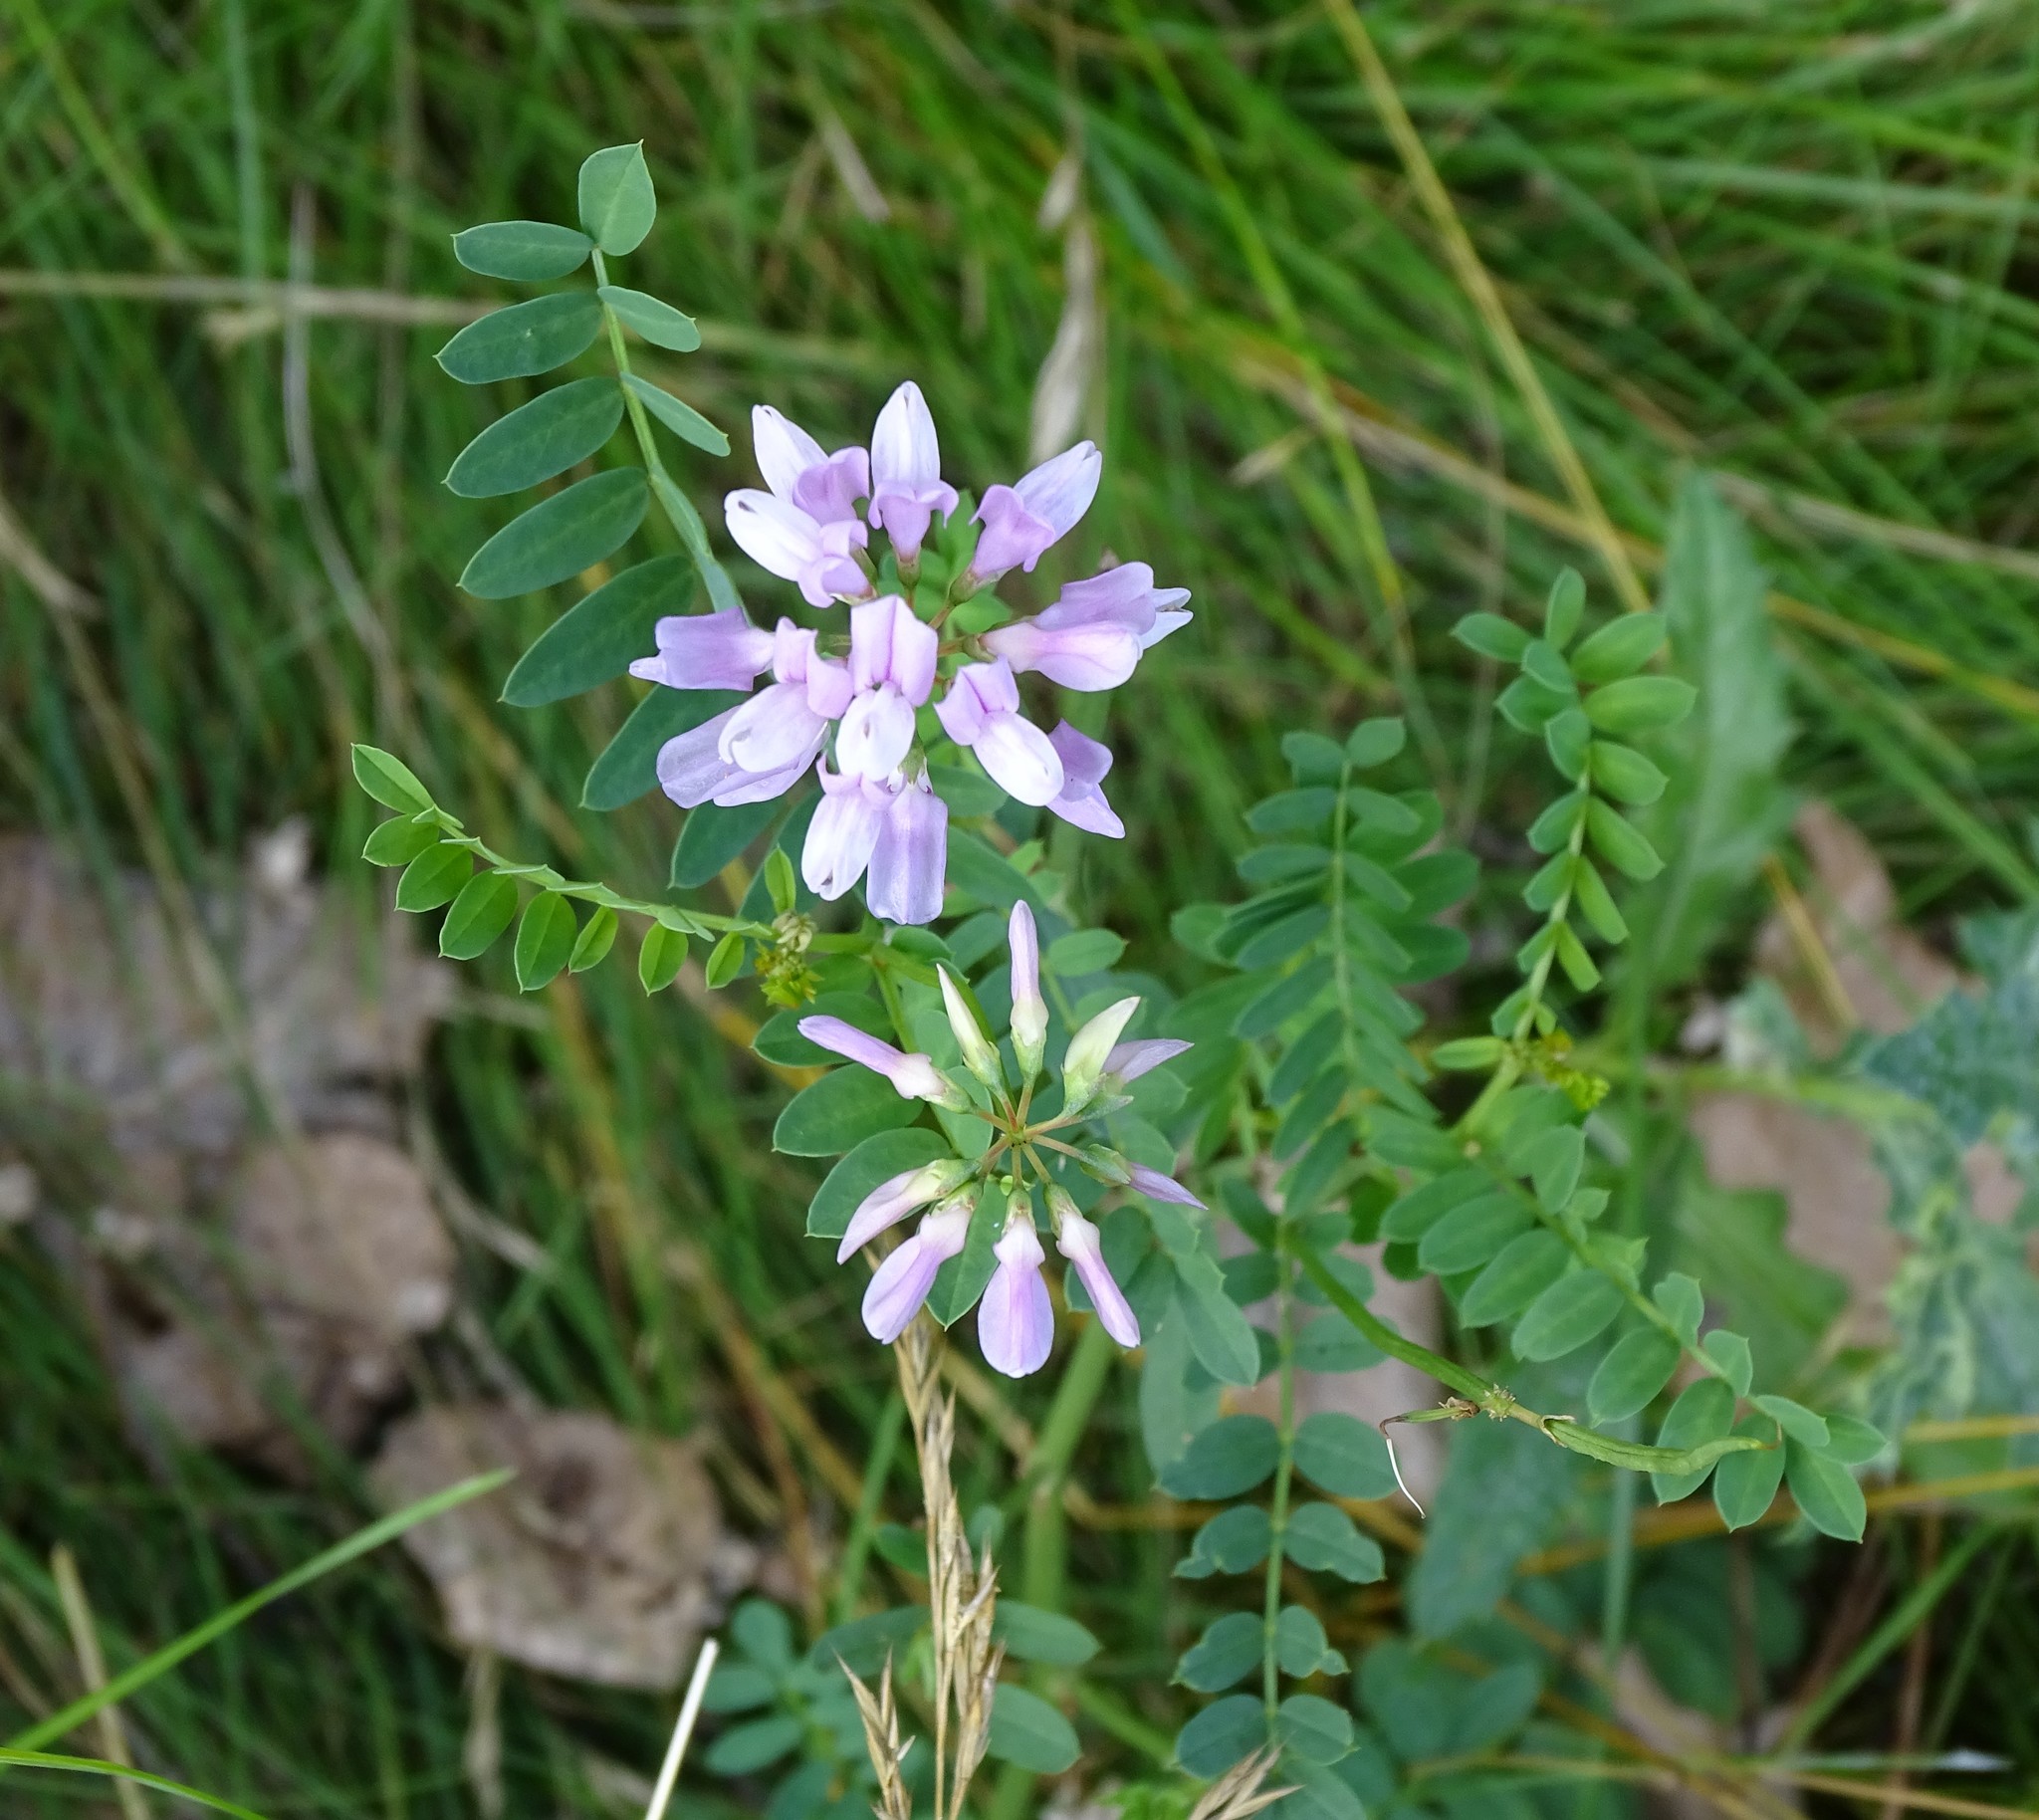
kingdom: Plantae
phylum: Tracheophyta
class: Magnoliopsida
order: Fabales
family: Fabaceae
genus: Coronilla
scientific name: Coronilla varia
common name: Crownvetch
